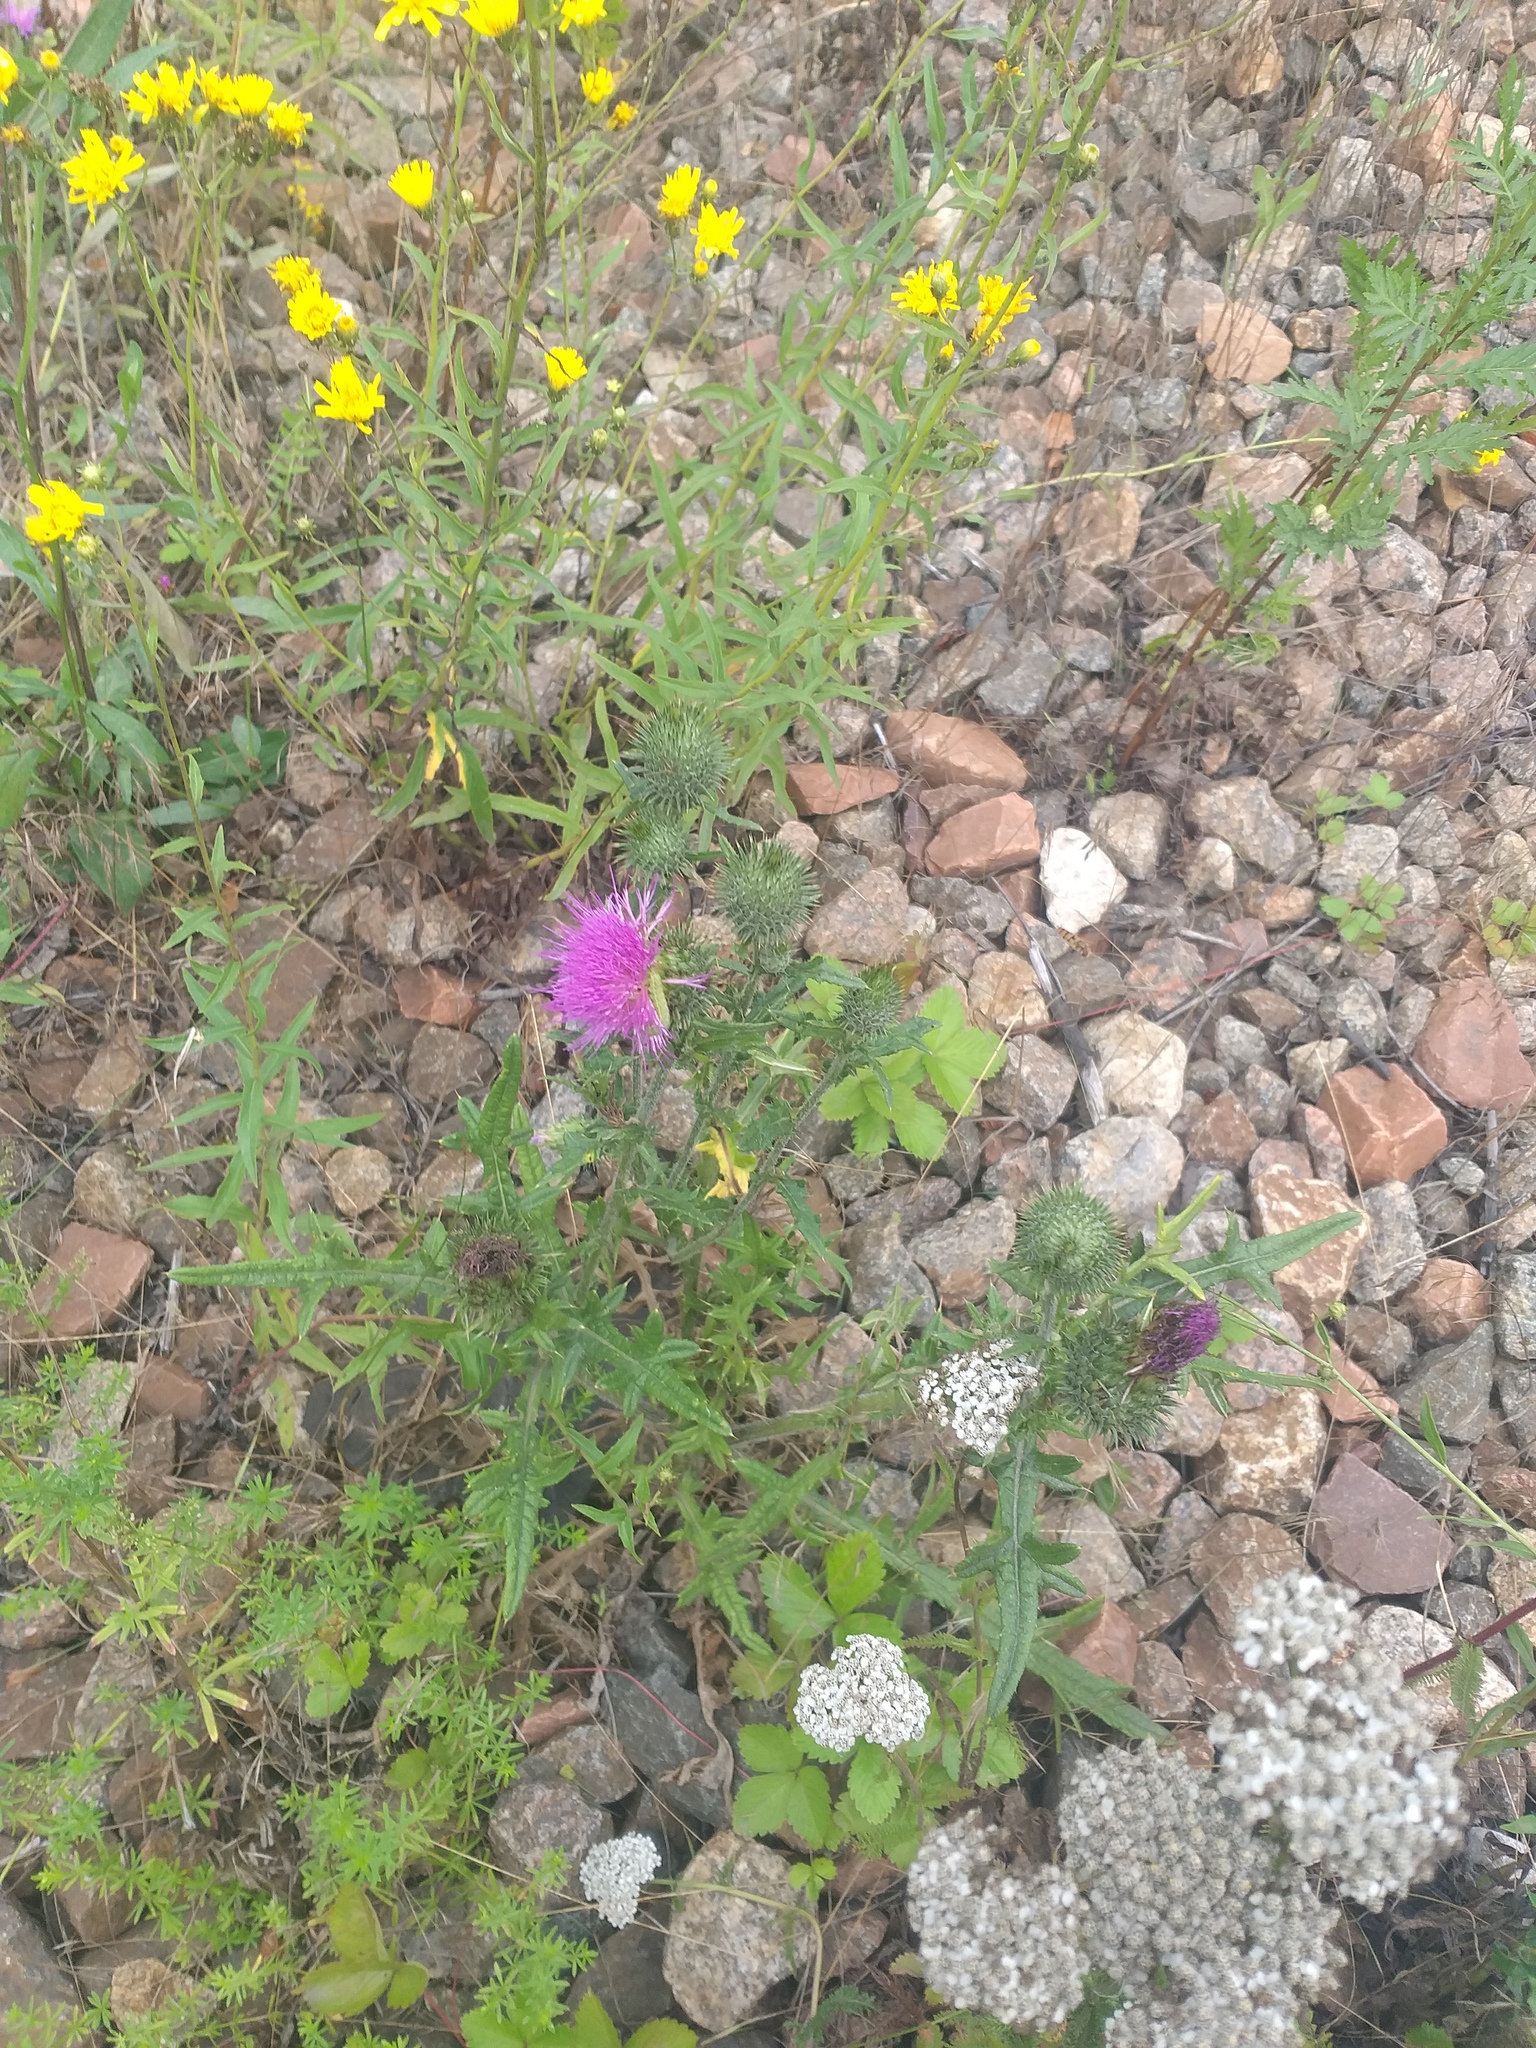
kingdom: Plantae
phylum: Tracheophyta
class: Magnoliopsida
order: Asterales
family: Asteraceae
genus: Cirsium
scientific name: Cirsium vulgare
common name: Bull thistle
